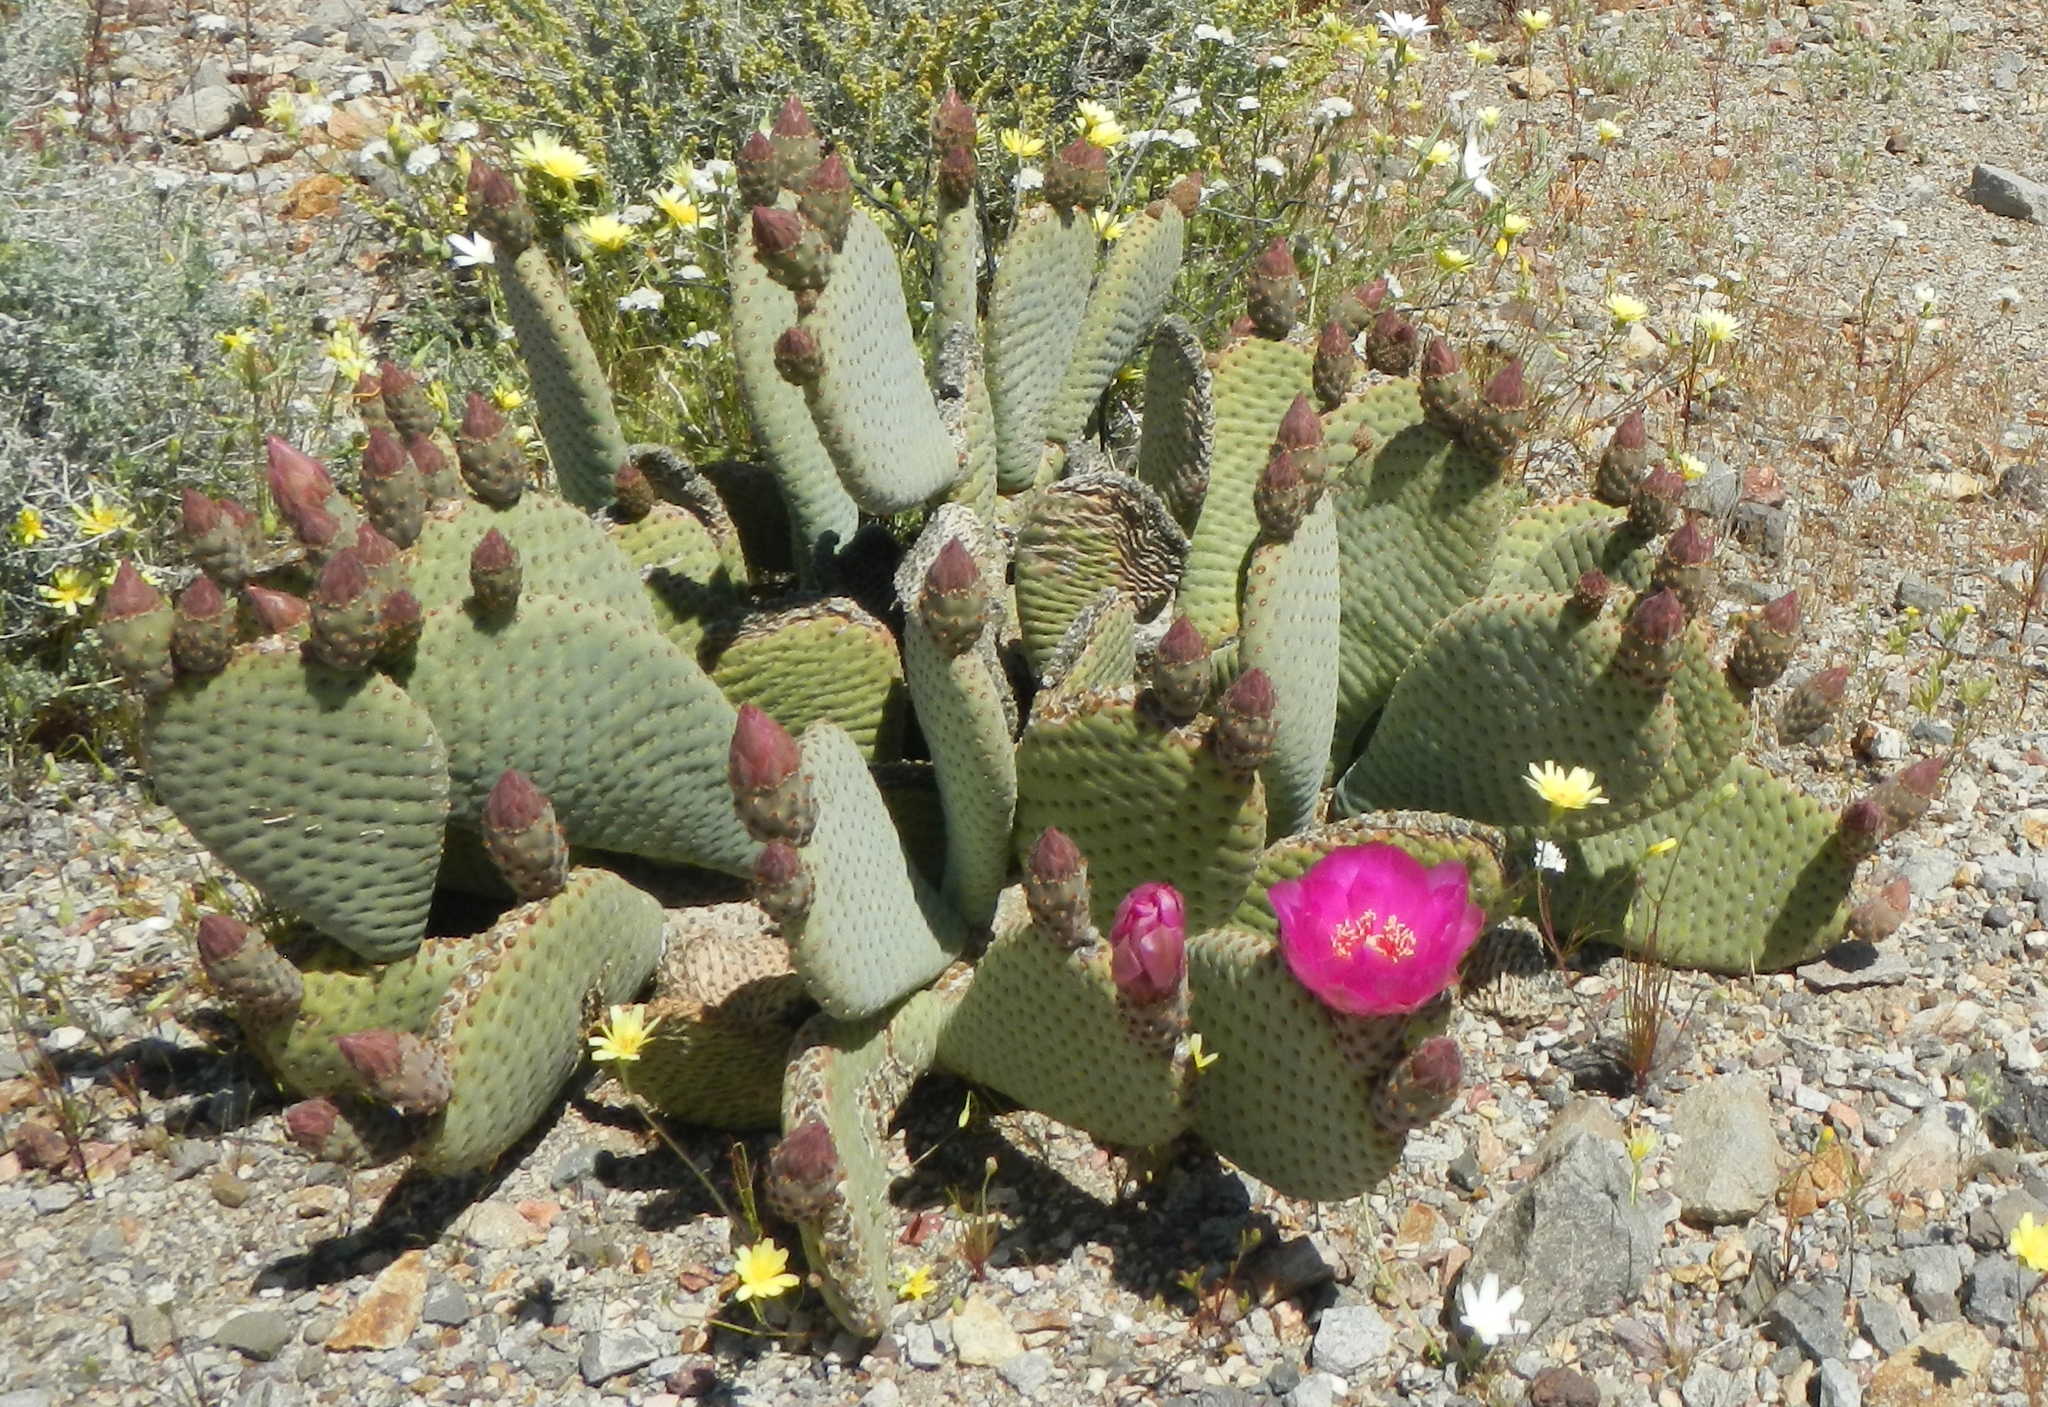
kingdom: Plantae
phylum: Tracheophyta
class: Magnoliopsida
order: Caryophyllales
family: Cactaceae
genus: Opuntia
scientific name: Opuntia basilaris
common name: Beavertail prickly-pear
